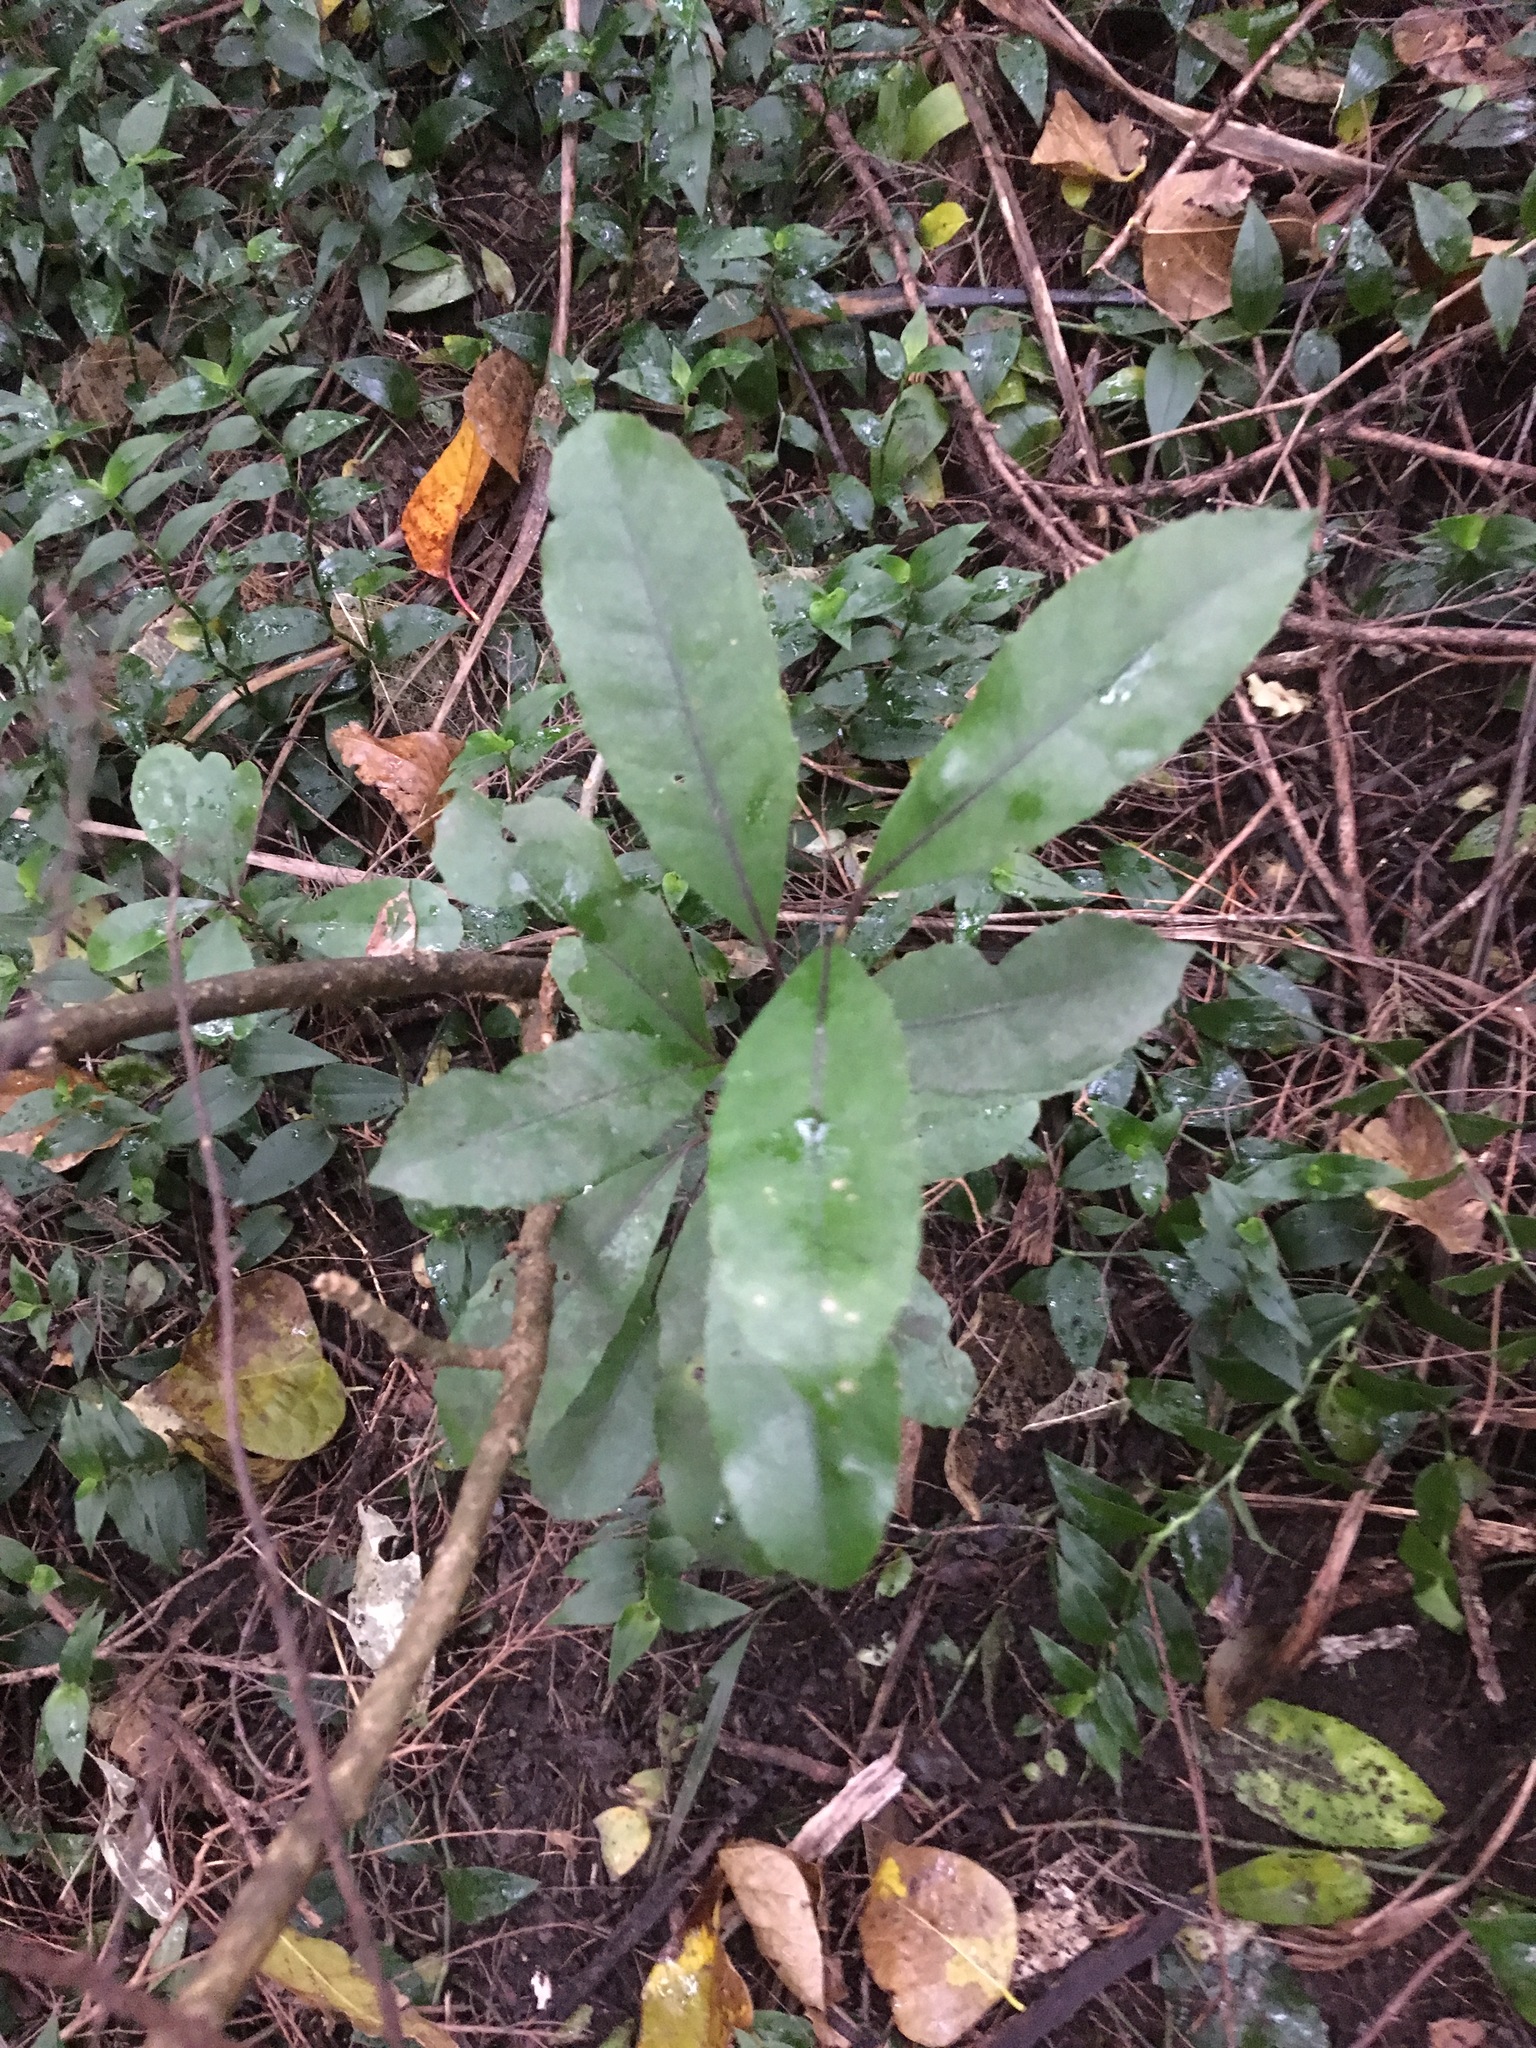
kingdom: Plantae
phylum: Tracheophyta
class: Magnoliopsida
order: Laurales
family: Monimiaceae
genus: Hedycarya
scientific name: Hedycarya arborea
